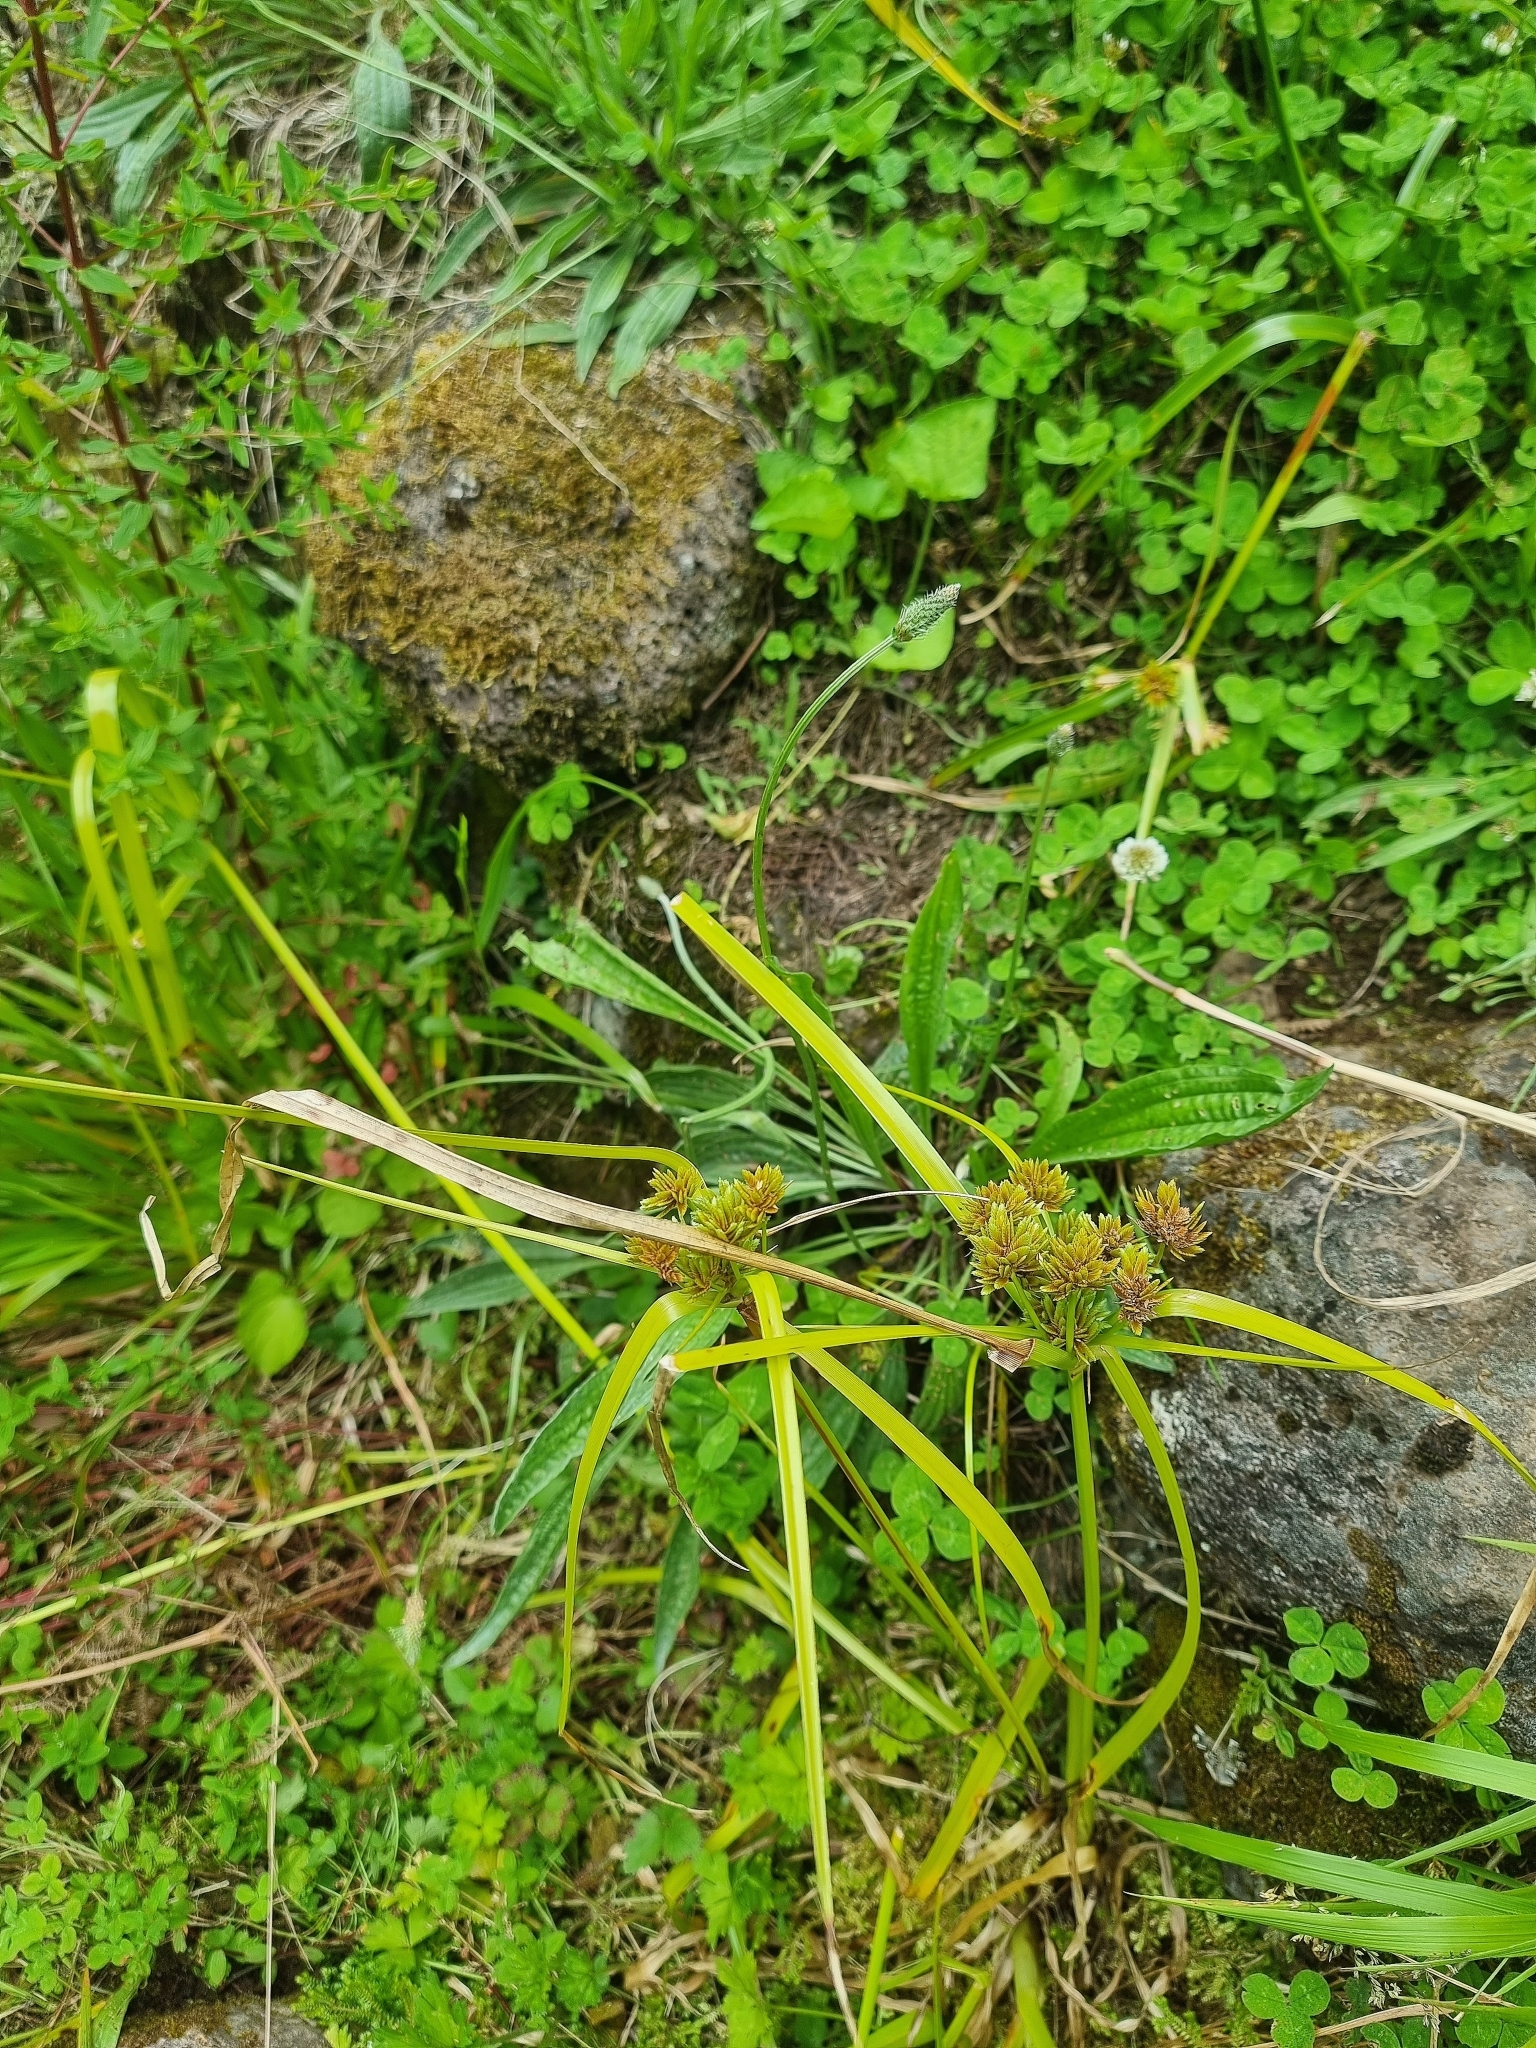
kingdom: Plantae
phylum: Tracheophyta
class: Liliopsida
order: Poales
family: Cyperaceae
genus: Cyperus
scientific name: Cyperus eragrostis
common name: Tall flatsedge
